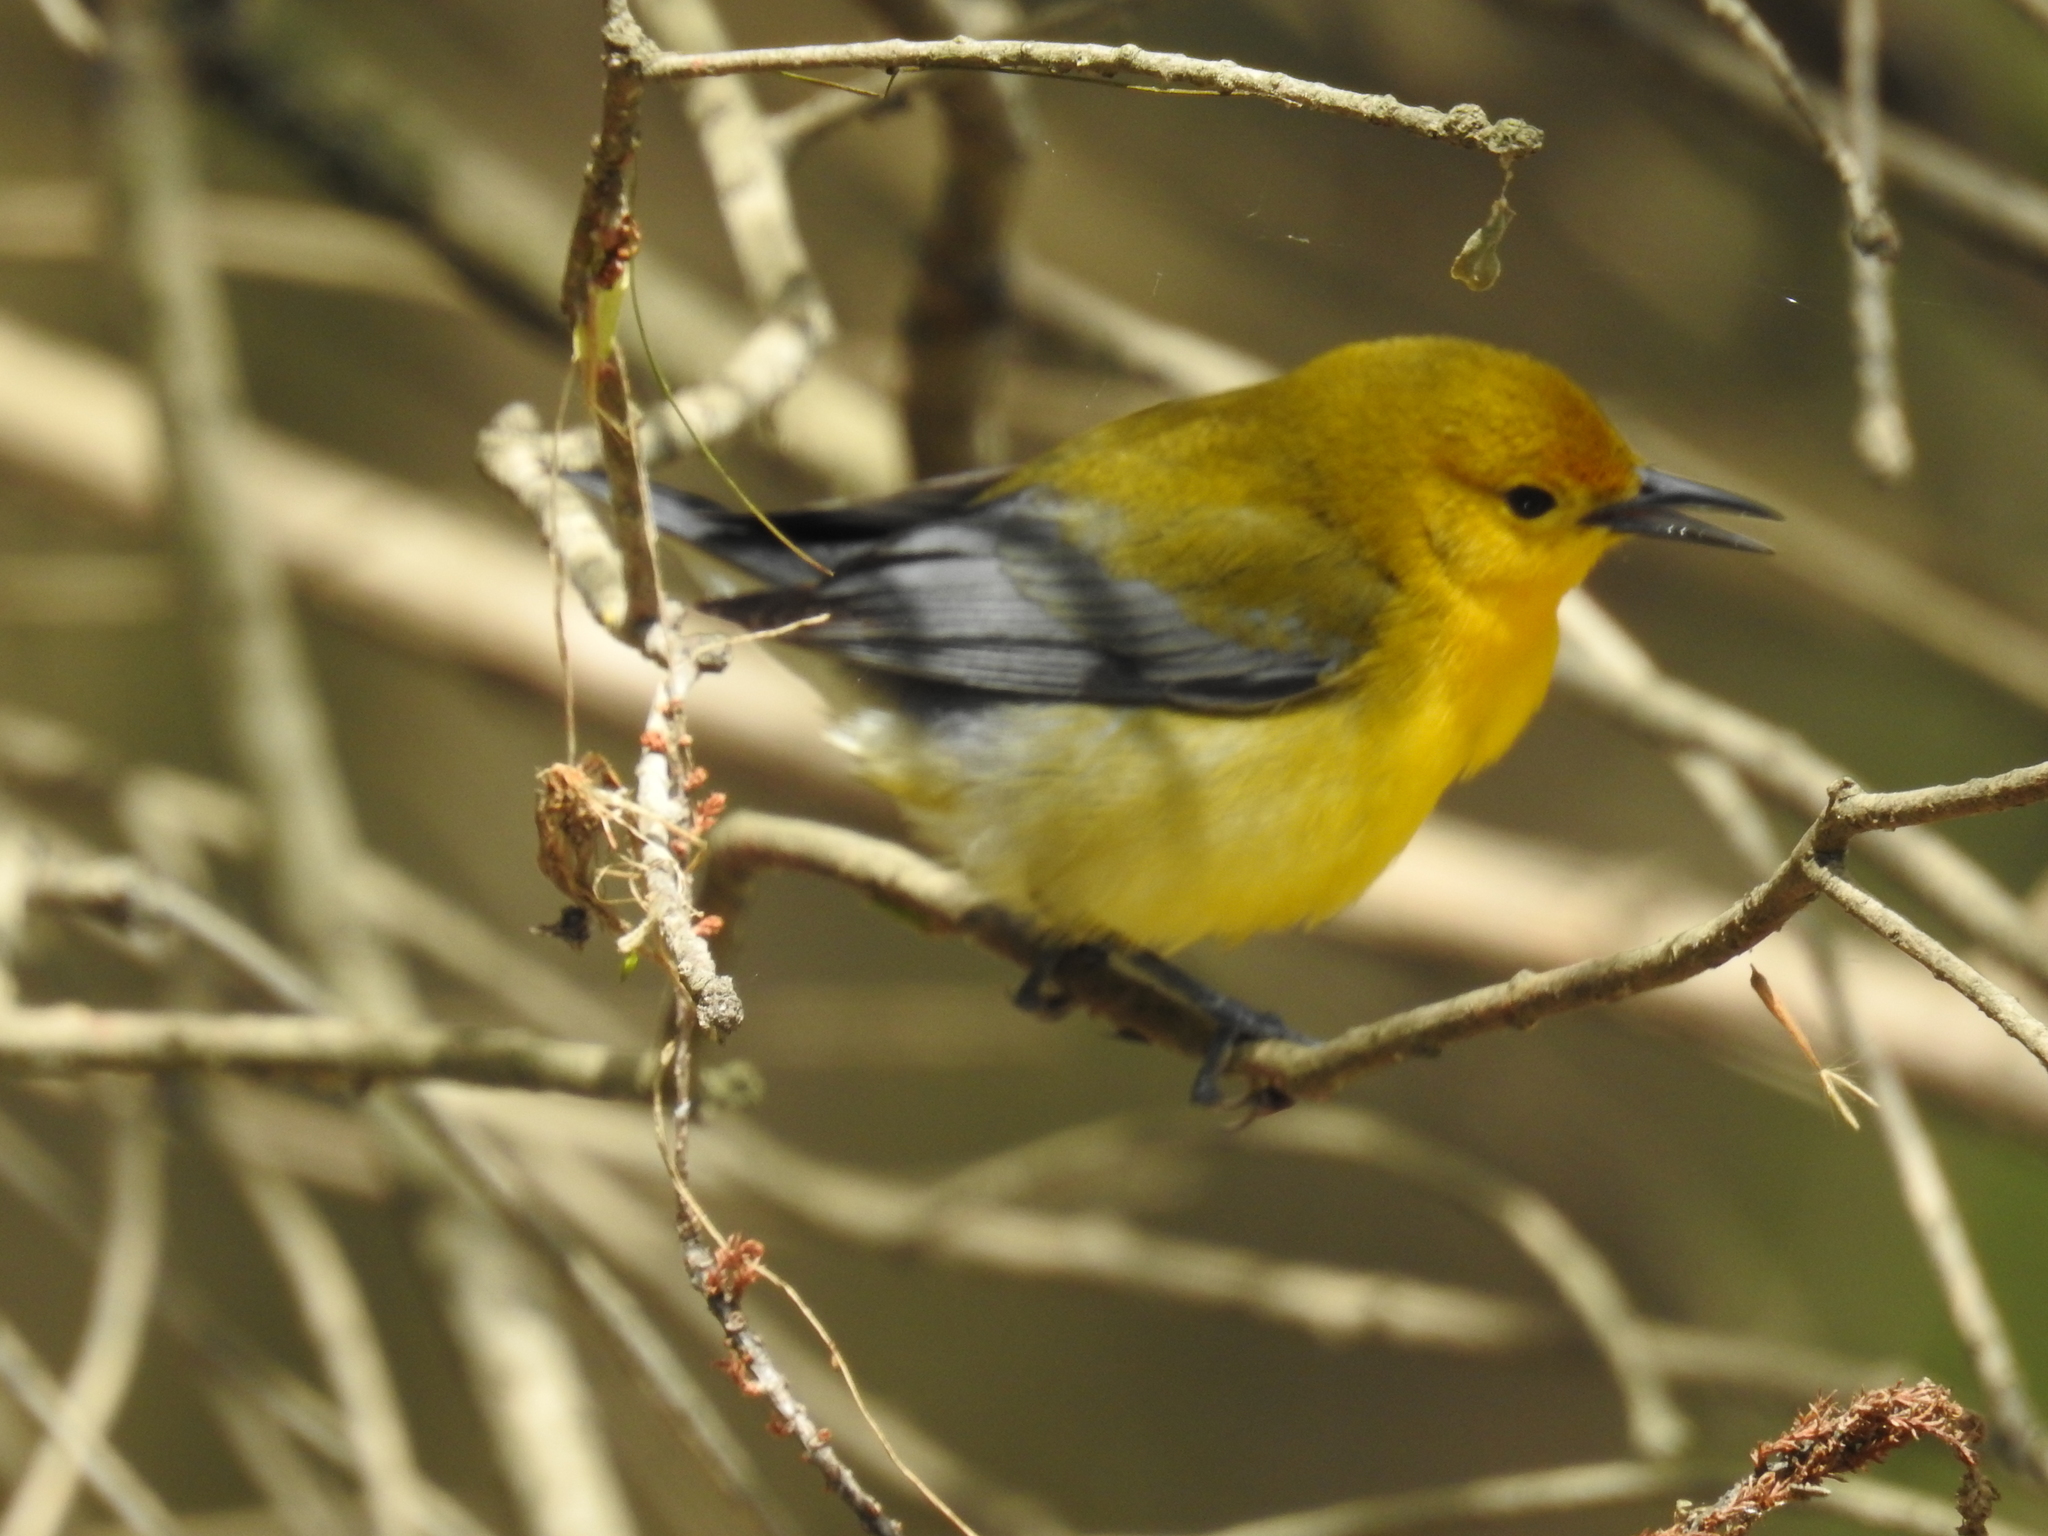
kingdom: Animalia
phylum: Chordata
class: Aves
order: Passeriformes
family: Parulidae
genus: Protonotaria
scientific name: Protonotaria citrea
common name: Prothonotary warbler
